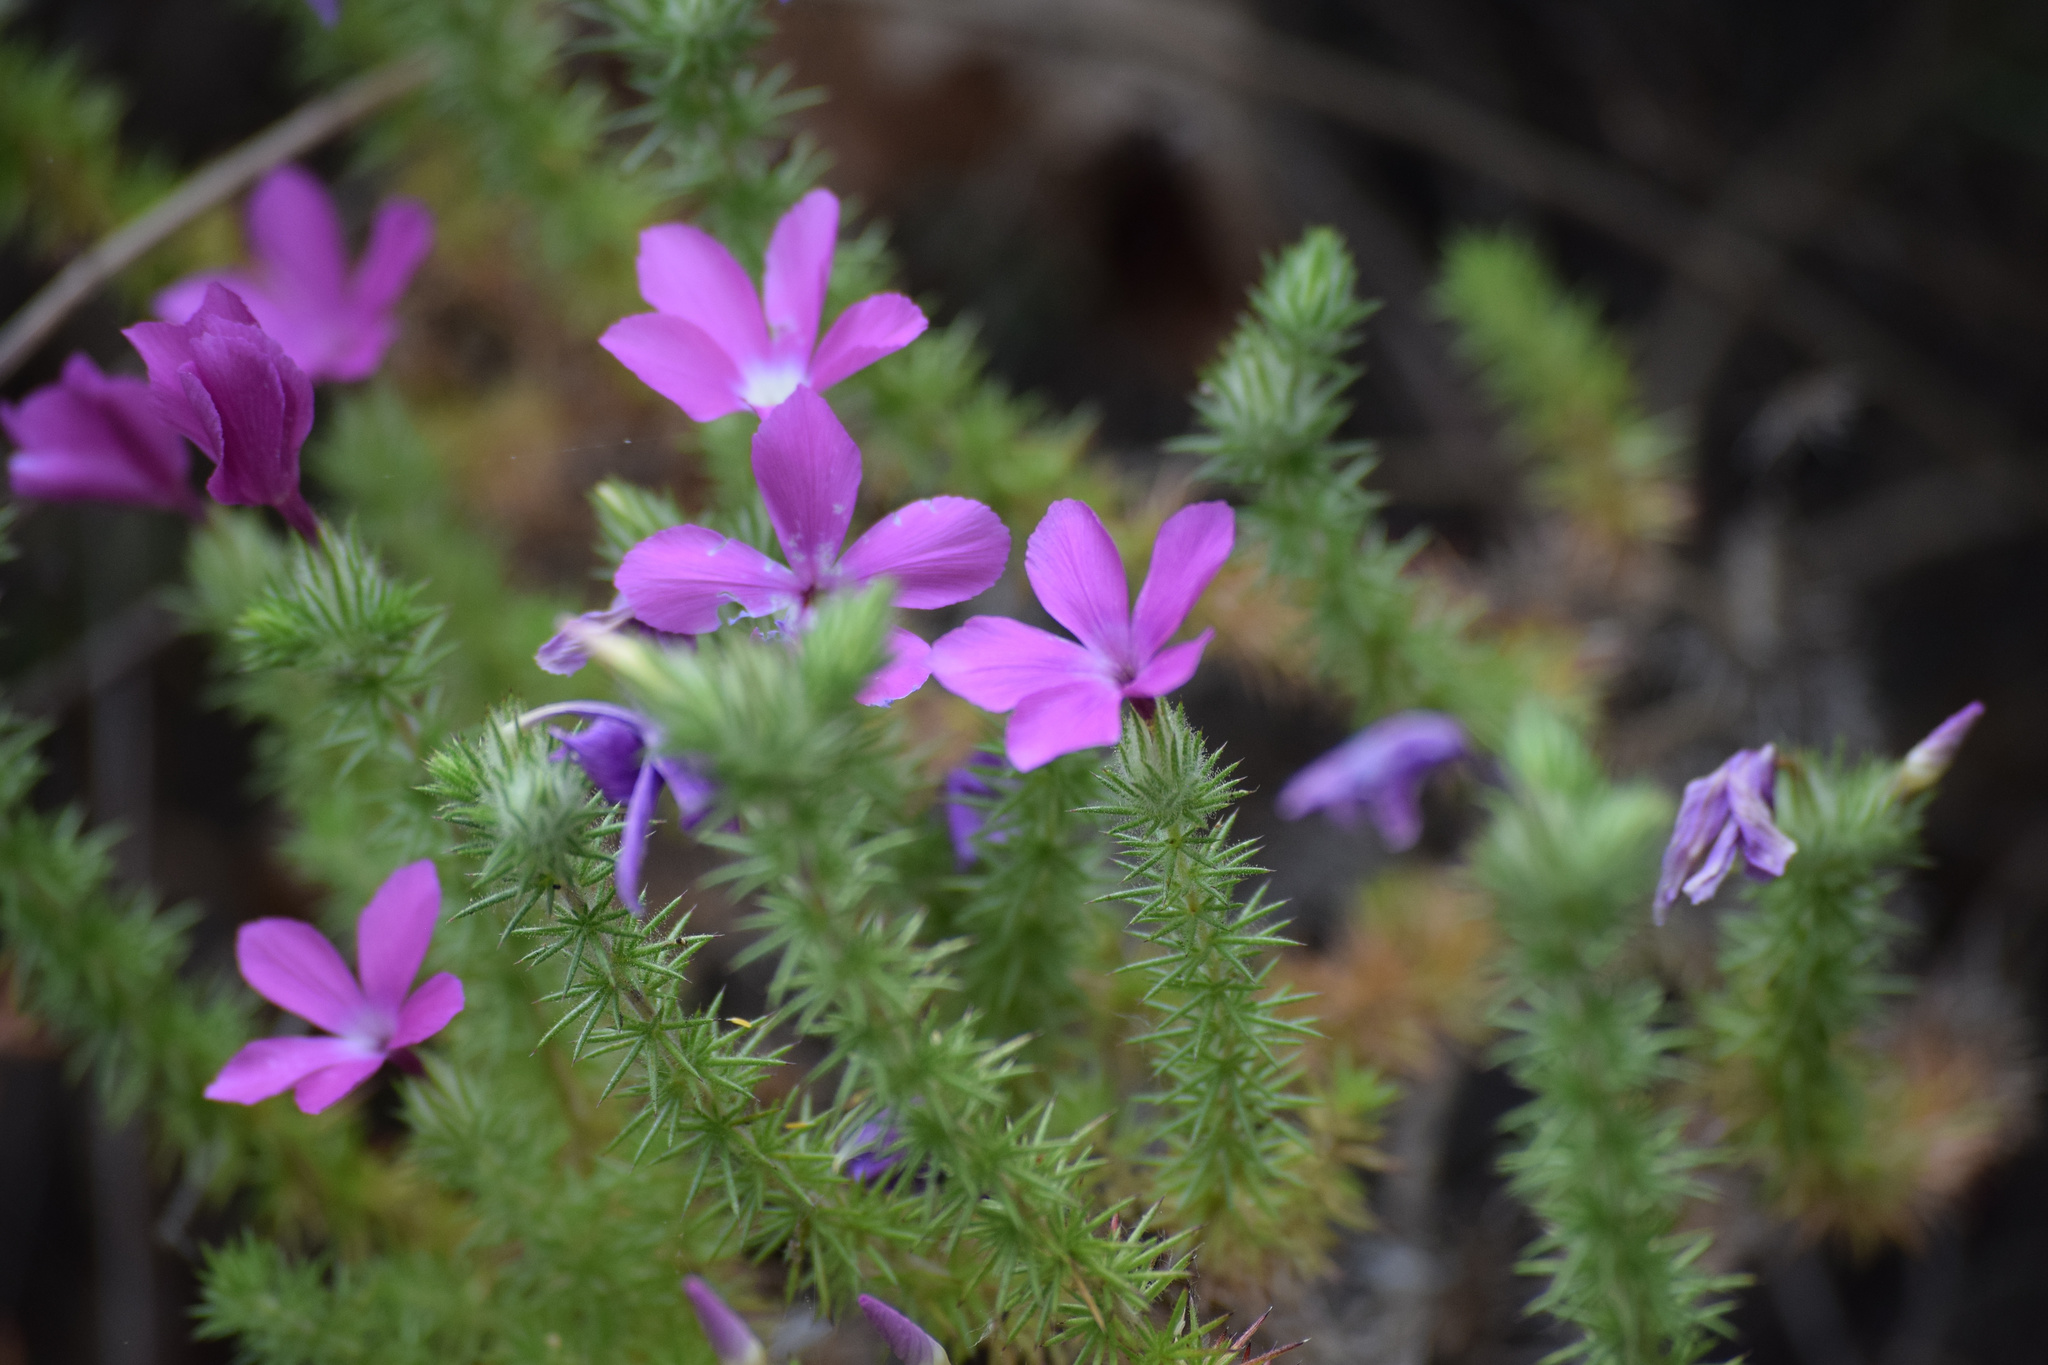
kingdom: Plantae
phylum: Tracheophyta
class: Magnoliopsida
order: Ericales
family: Polemoniaceae
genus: Linanthus
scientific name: Linanthus californicus
